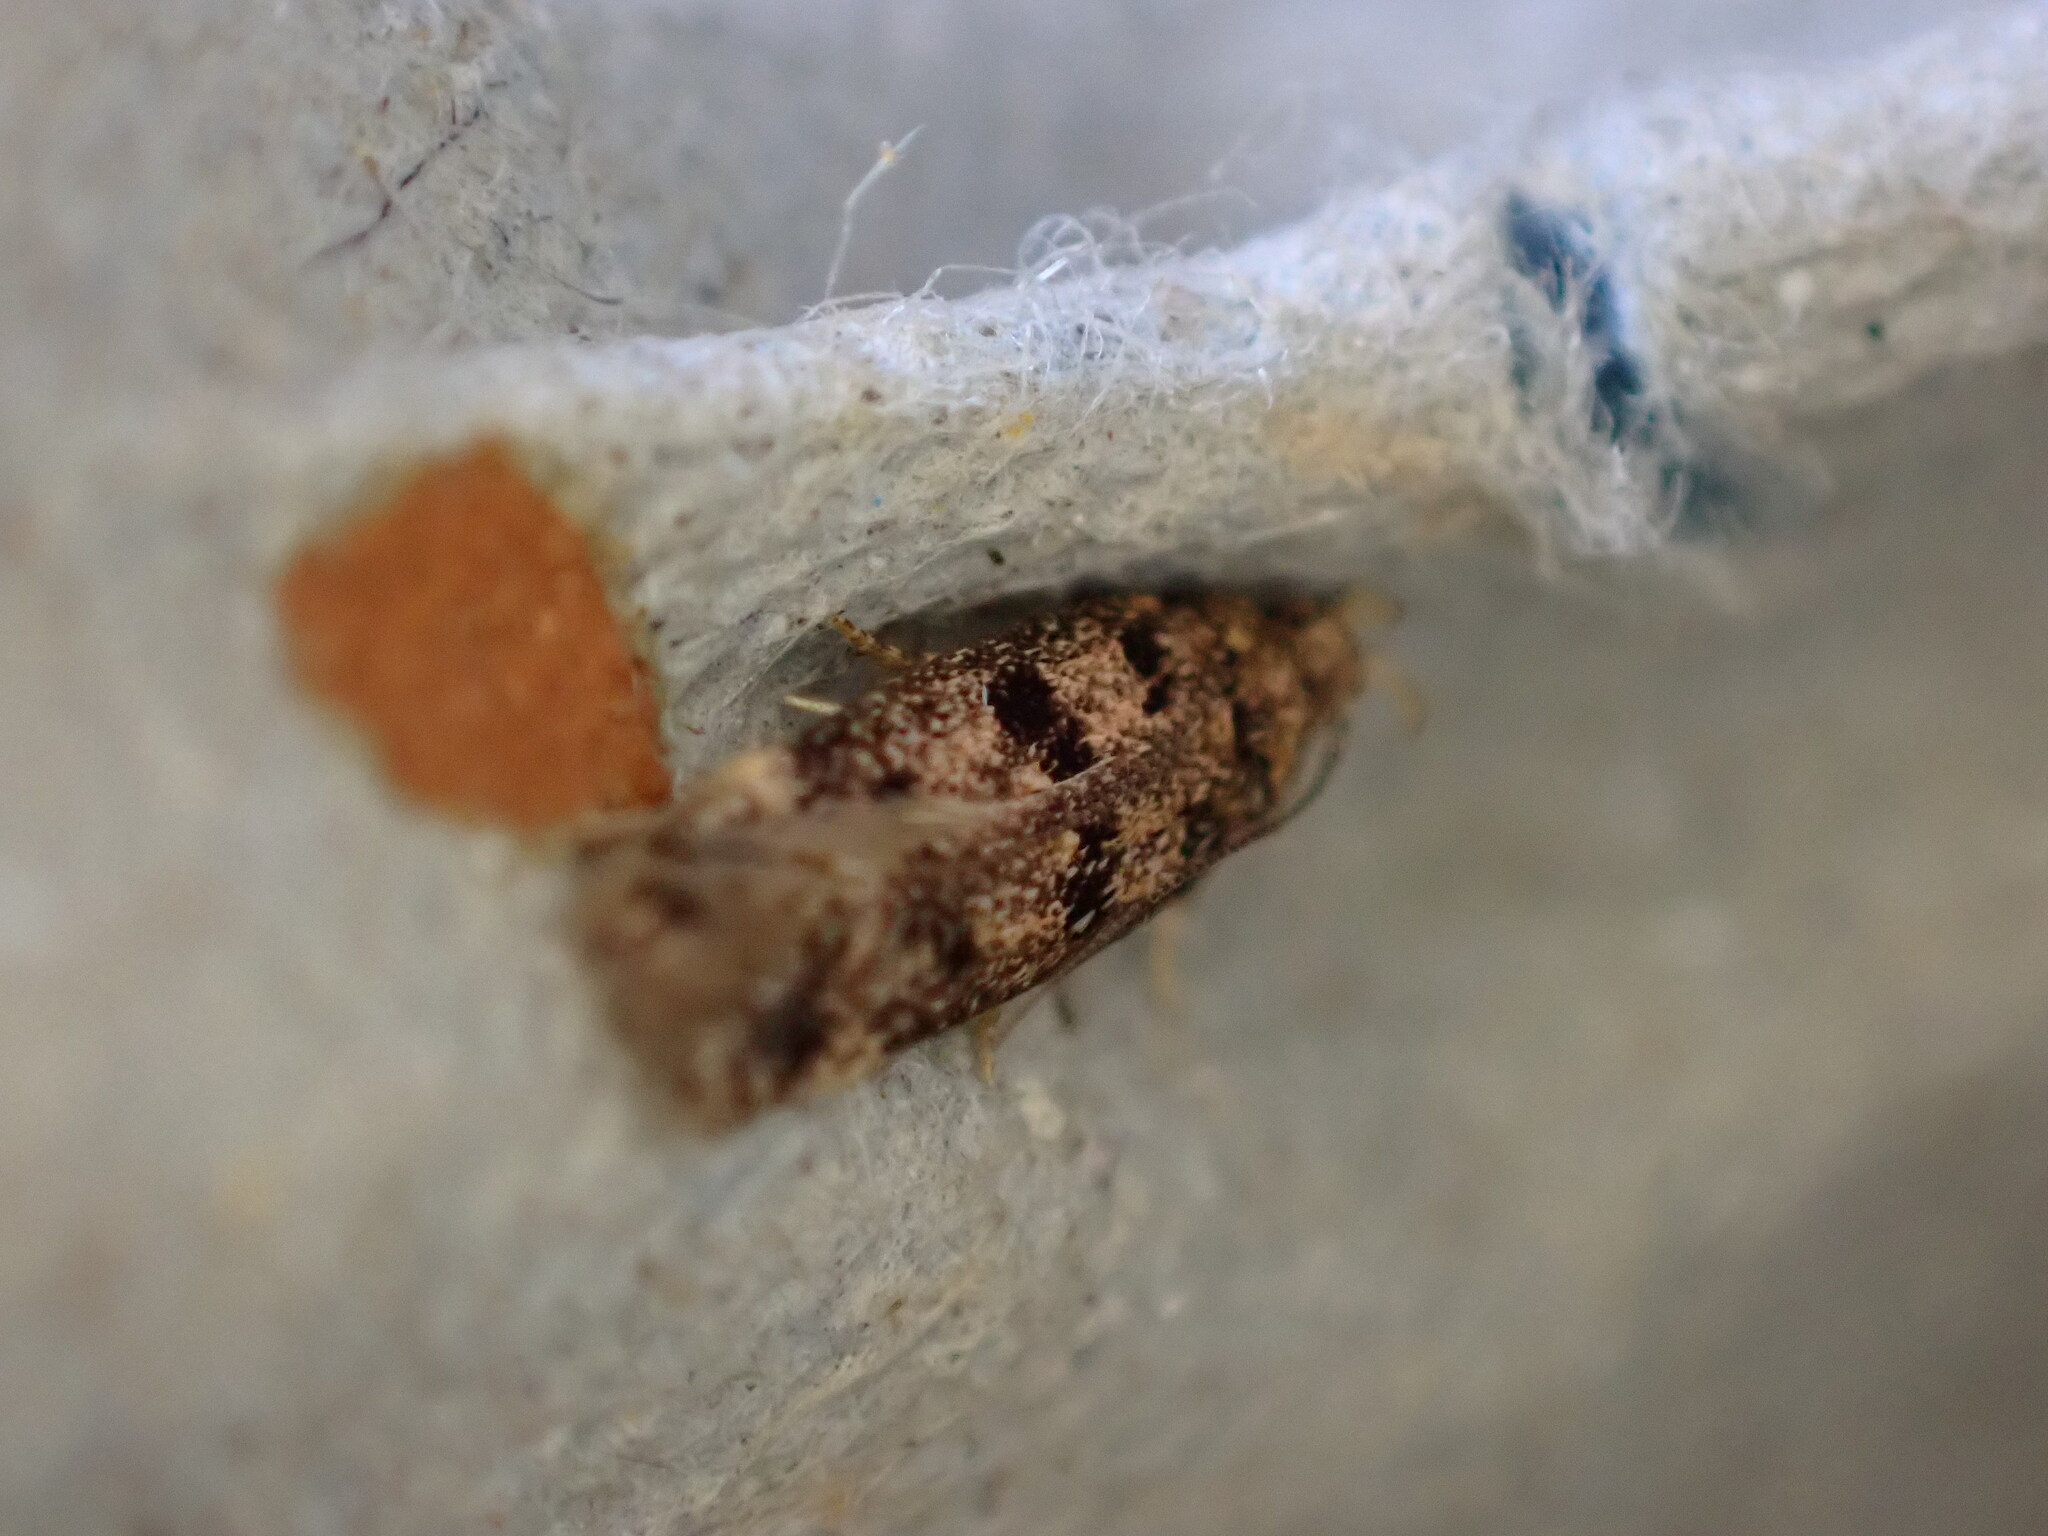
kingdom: Animalia
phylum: Arthropoda
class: Insecta
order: Lepidoptera
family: Gelechiidae
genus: Bryotropha
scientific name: Bryotropha domestica
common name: House groundling
